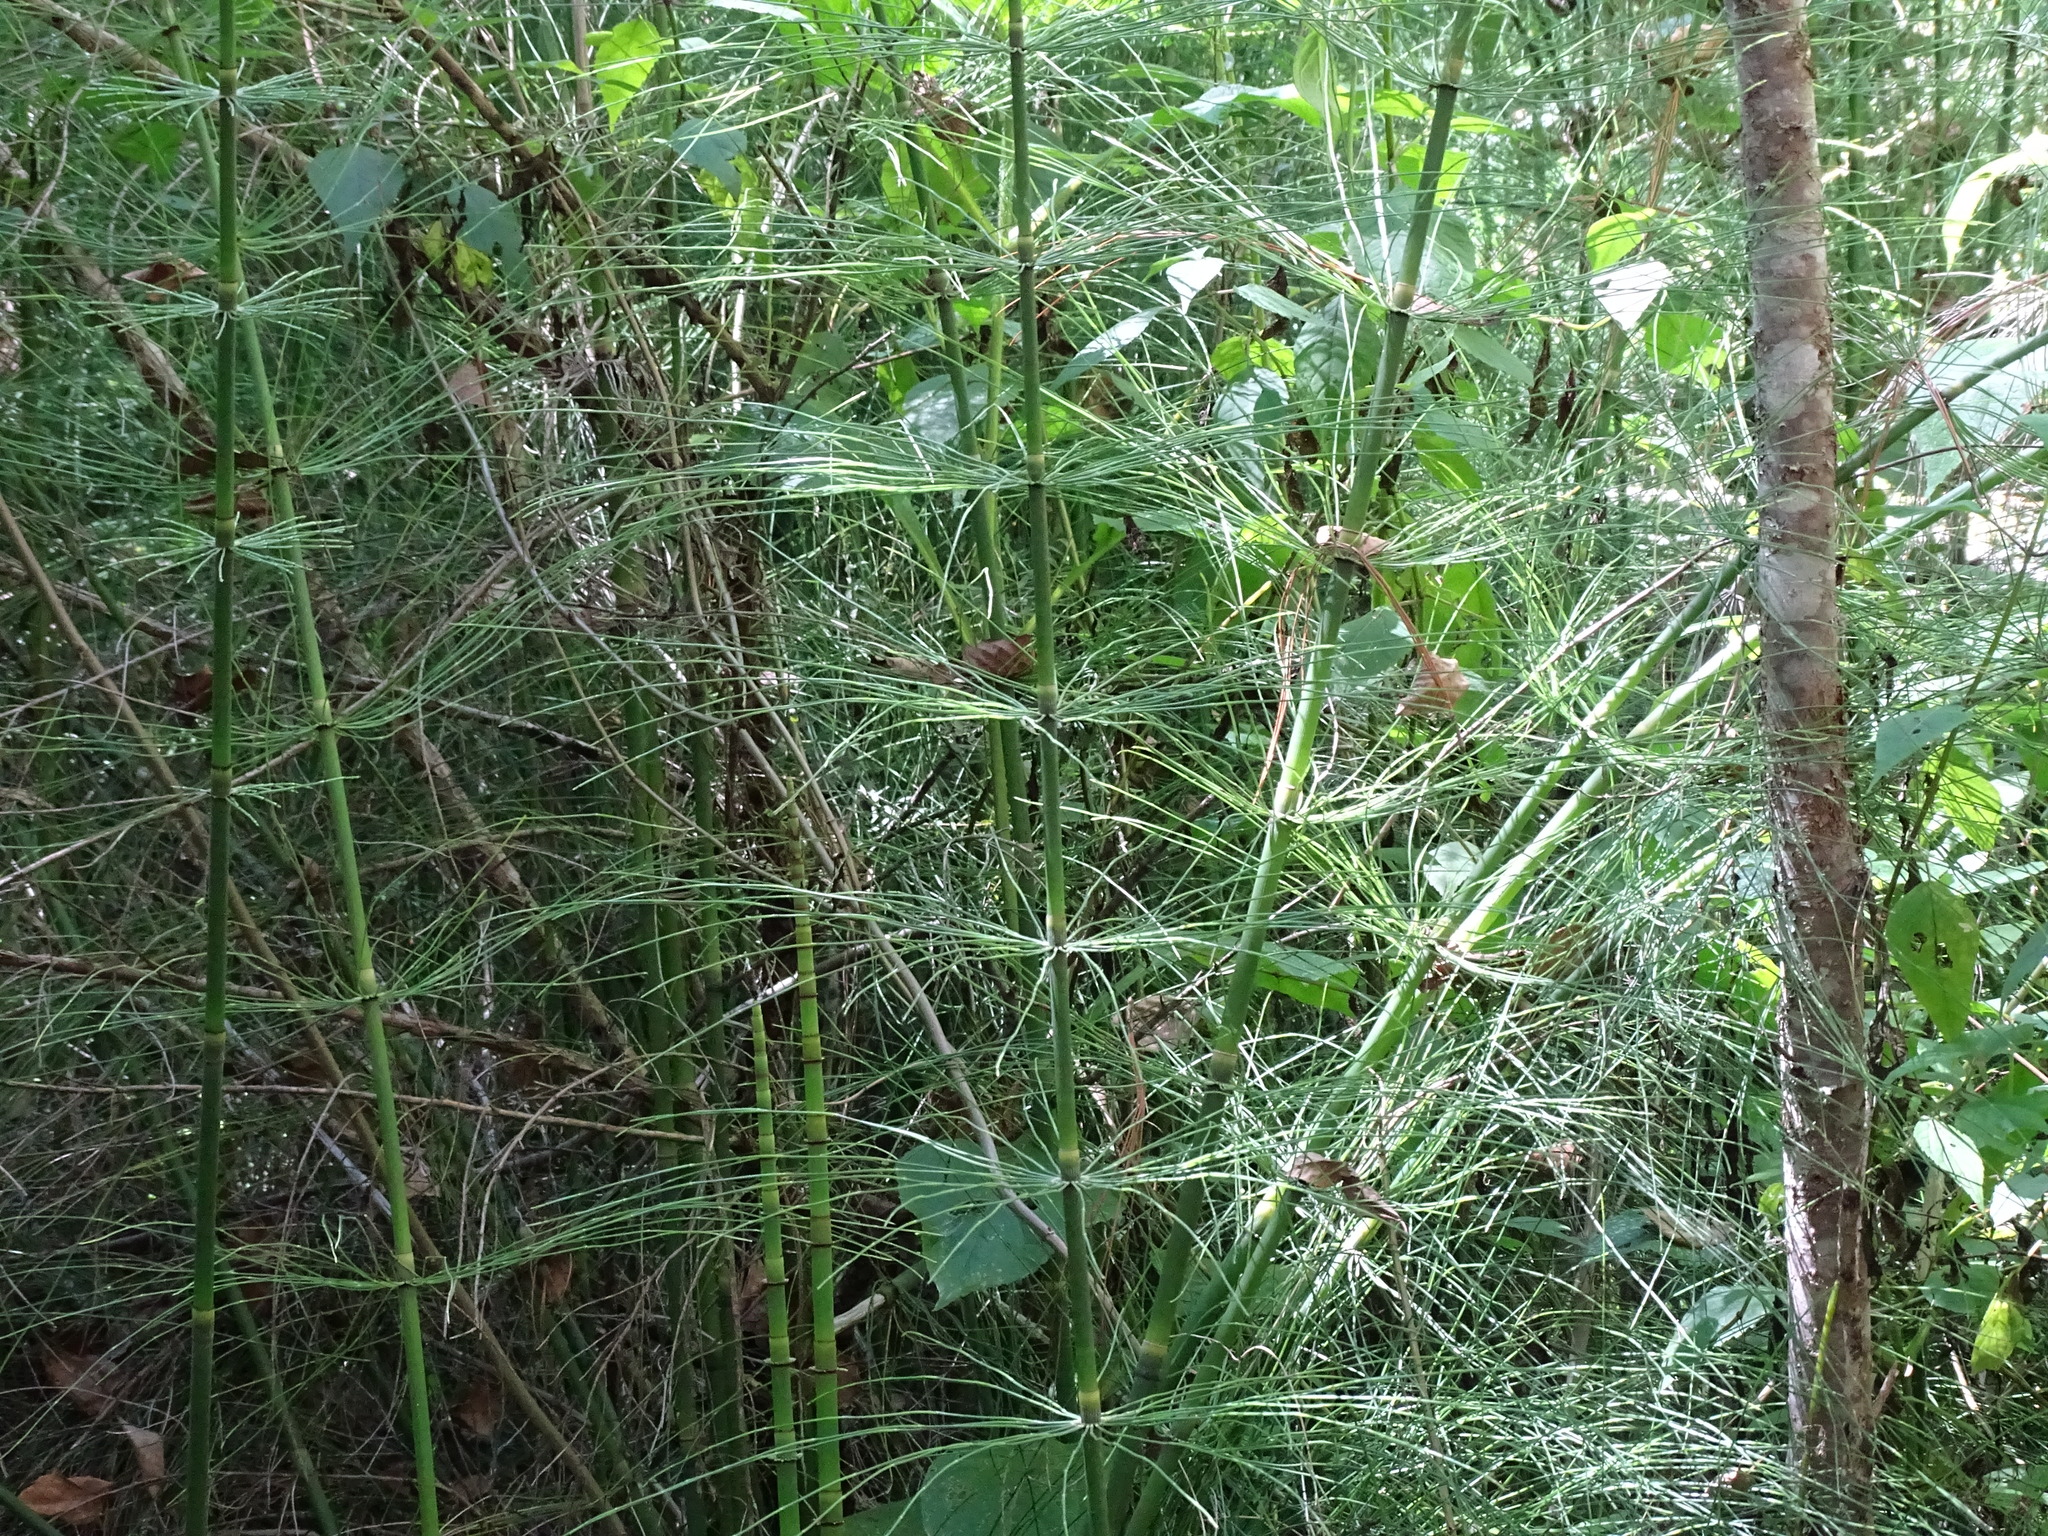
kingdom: Plantae
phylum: Tracheophyta
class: Polypodiopsida
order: Equisetales
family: Equisetaceae
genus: Equisetum
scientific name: Equisetum myriochaetum
